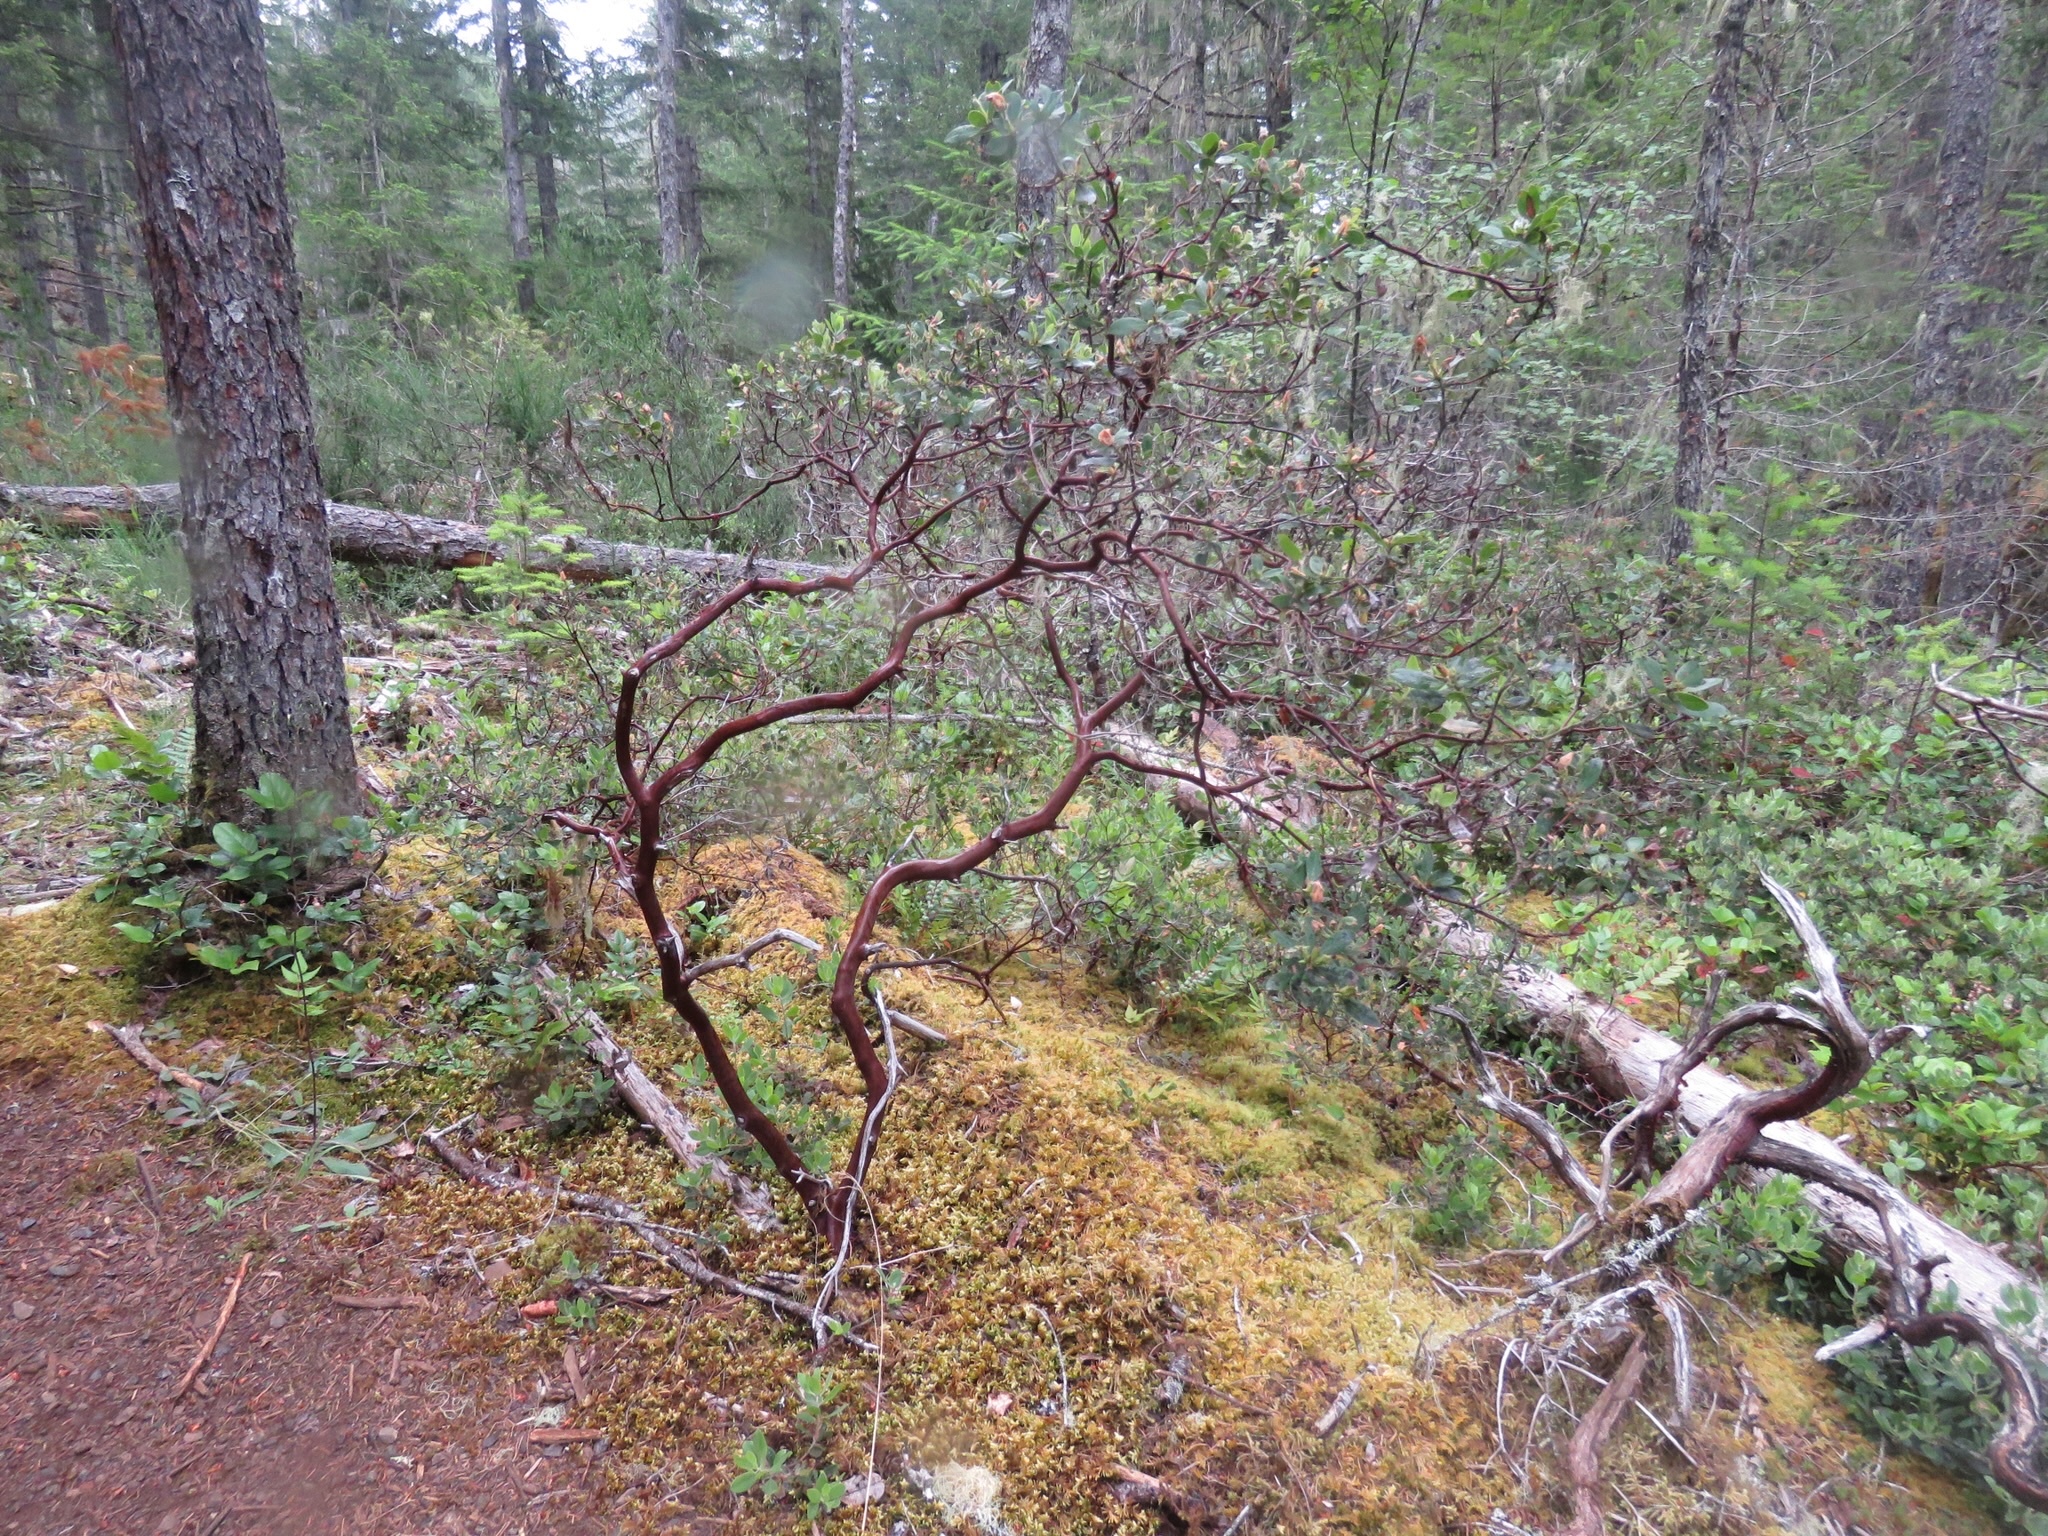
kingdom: Plantae
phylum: Tracheophyta
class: Magnoliopsida
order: Ericales
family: Ericaceae
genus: Arctostaphylos
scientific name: Arctostaphylos columbiana
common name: Bristly bearberry
